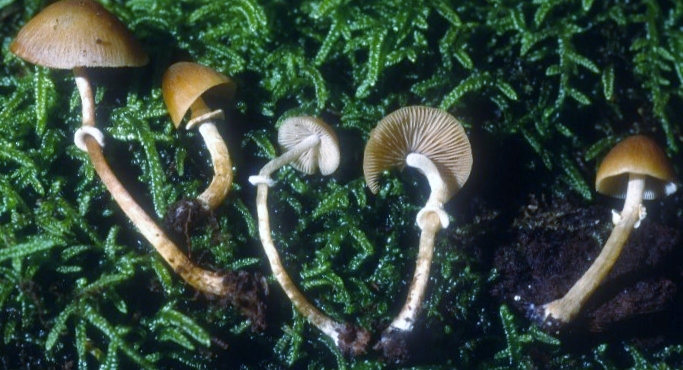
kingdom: Fungi
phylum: Basidiomycota
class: Agaricomycetes
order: Agaricales
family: Bolbitiaceae
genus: Conocybe
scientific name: Conocybe rugosa
